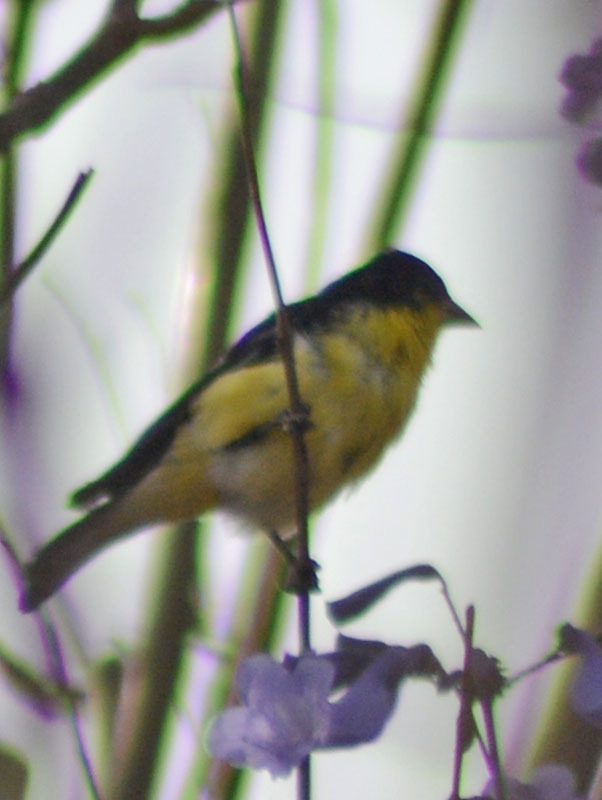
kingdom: Animalia
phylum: Chordata
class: Aves
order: Passeriformes
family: Fringillidae
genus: Spinus
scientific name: Spinus psaltria
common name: Lesser goldfinch
